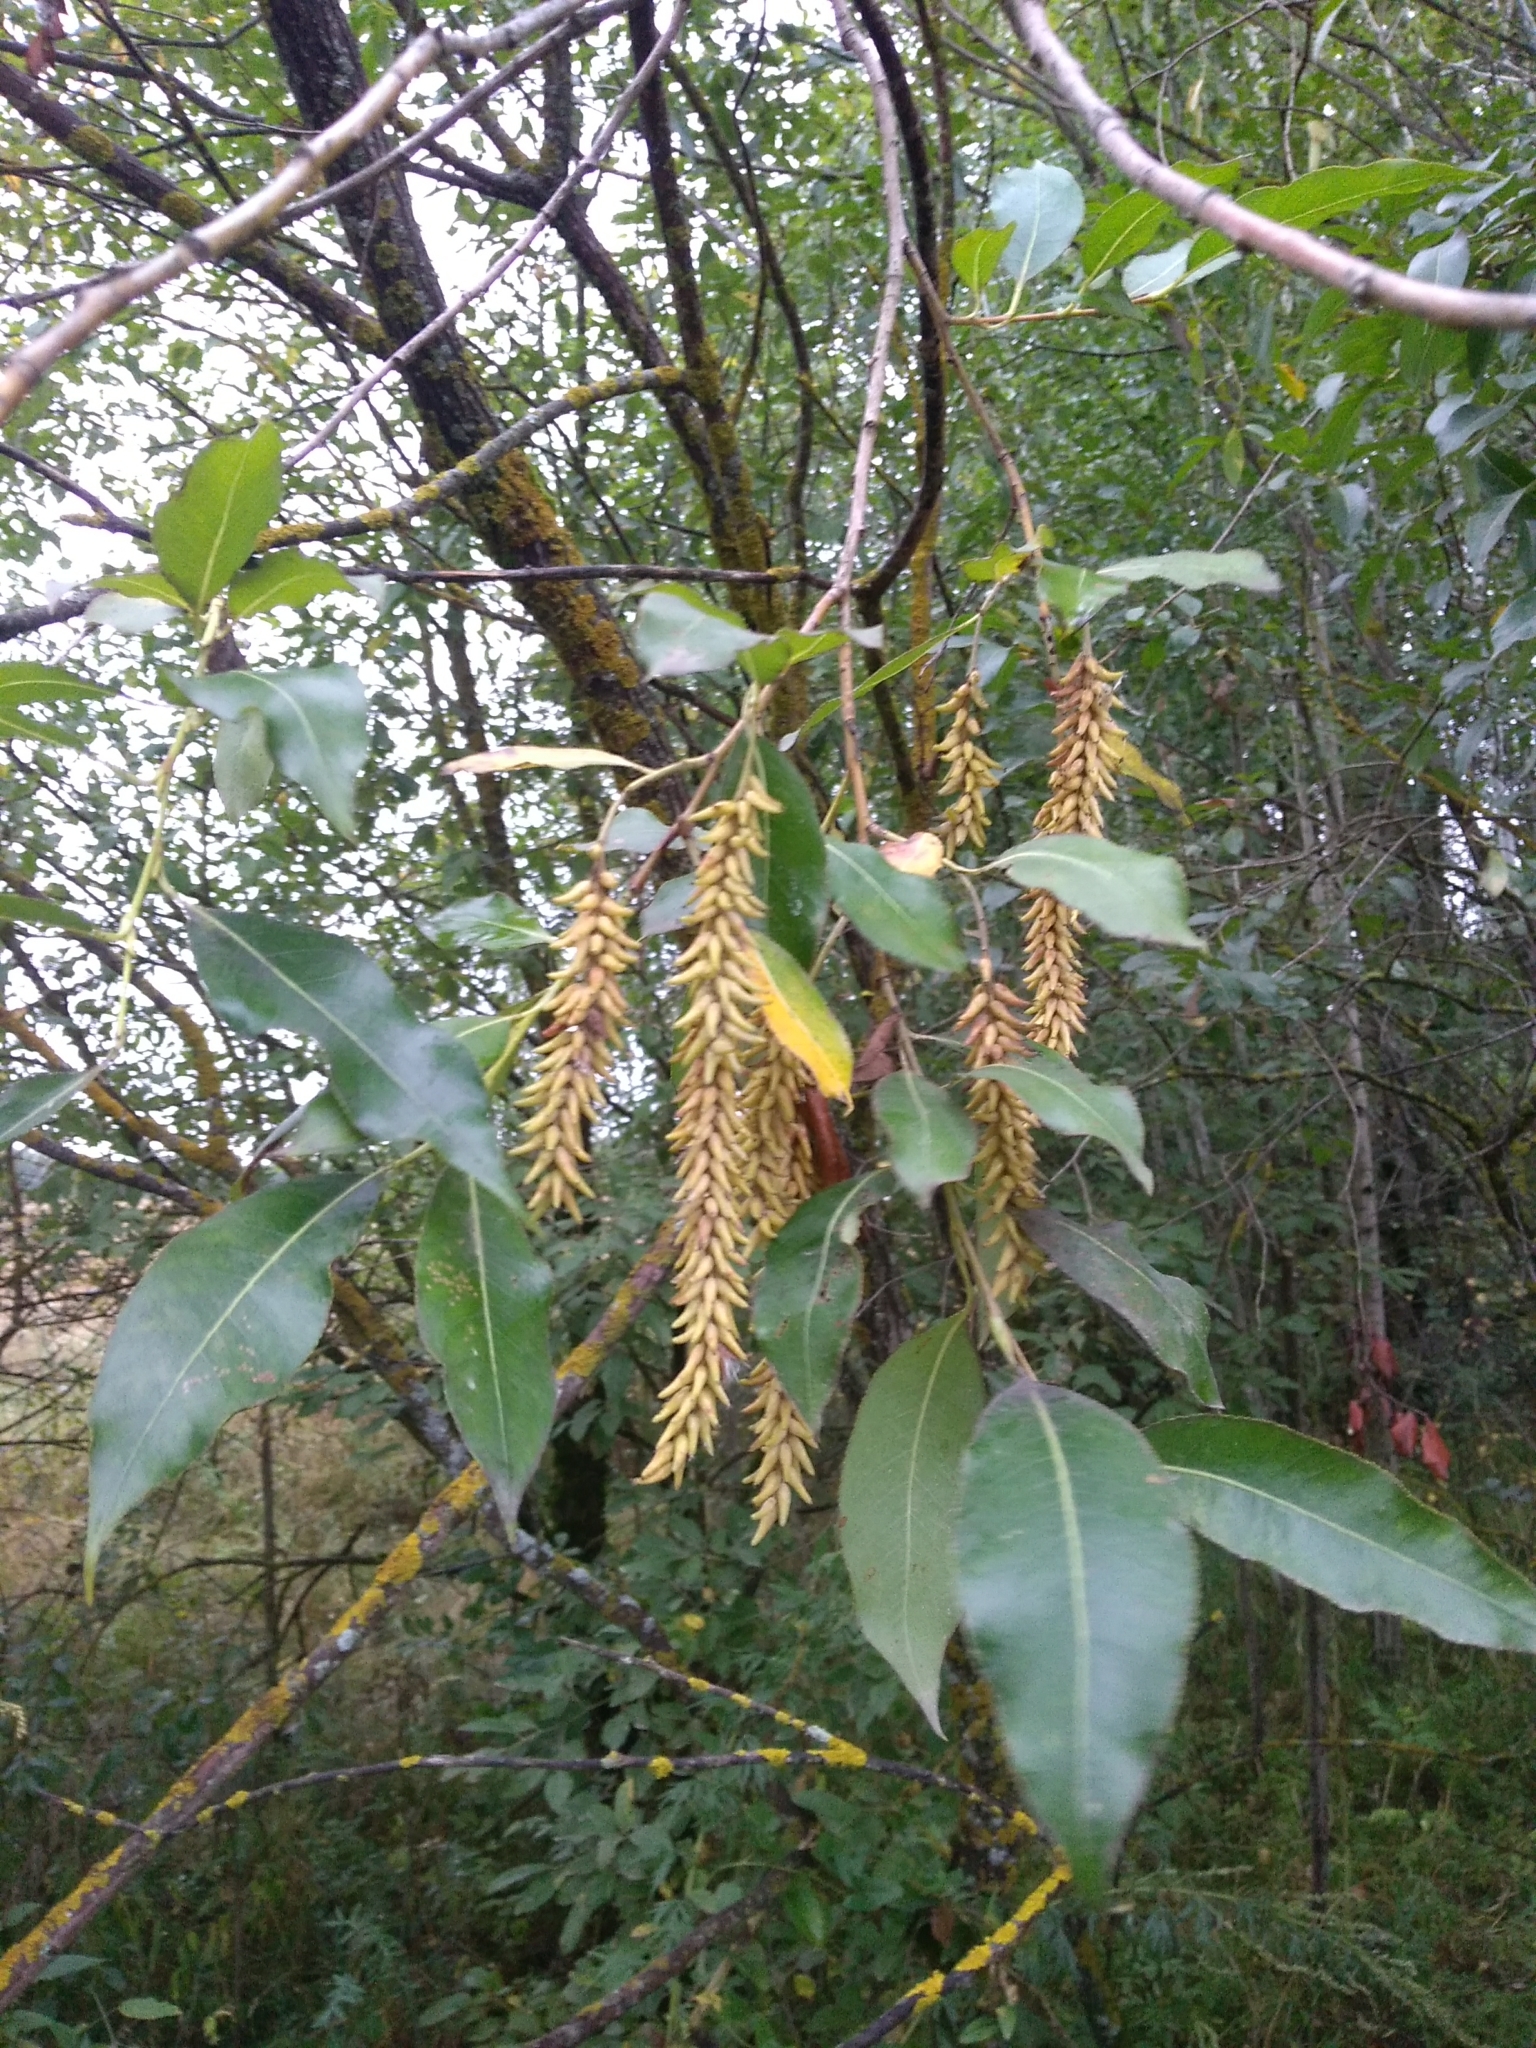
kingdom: Plantae
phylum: Tracheophyta
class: Magnoliopsida
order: Malpighiales
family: Salicaceae
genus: Salix
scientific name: Salix pentandra
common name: Bay willow
